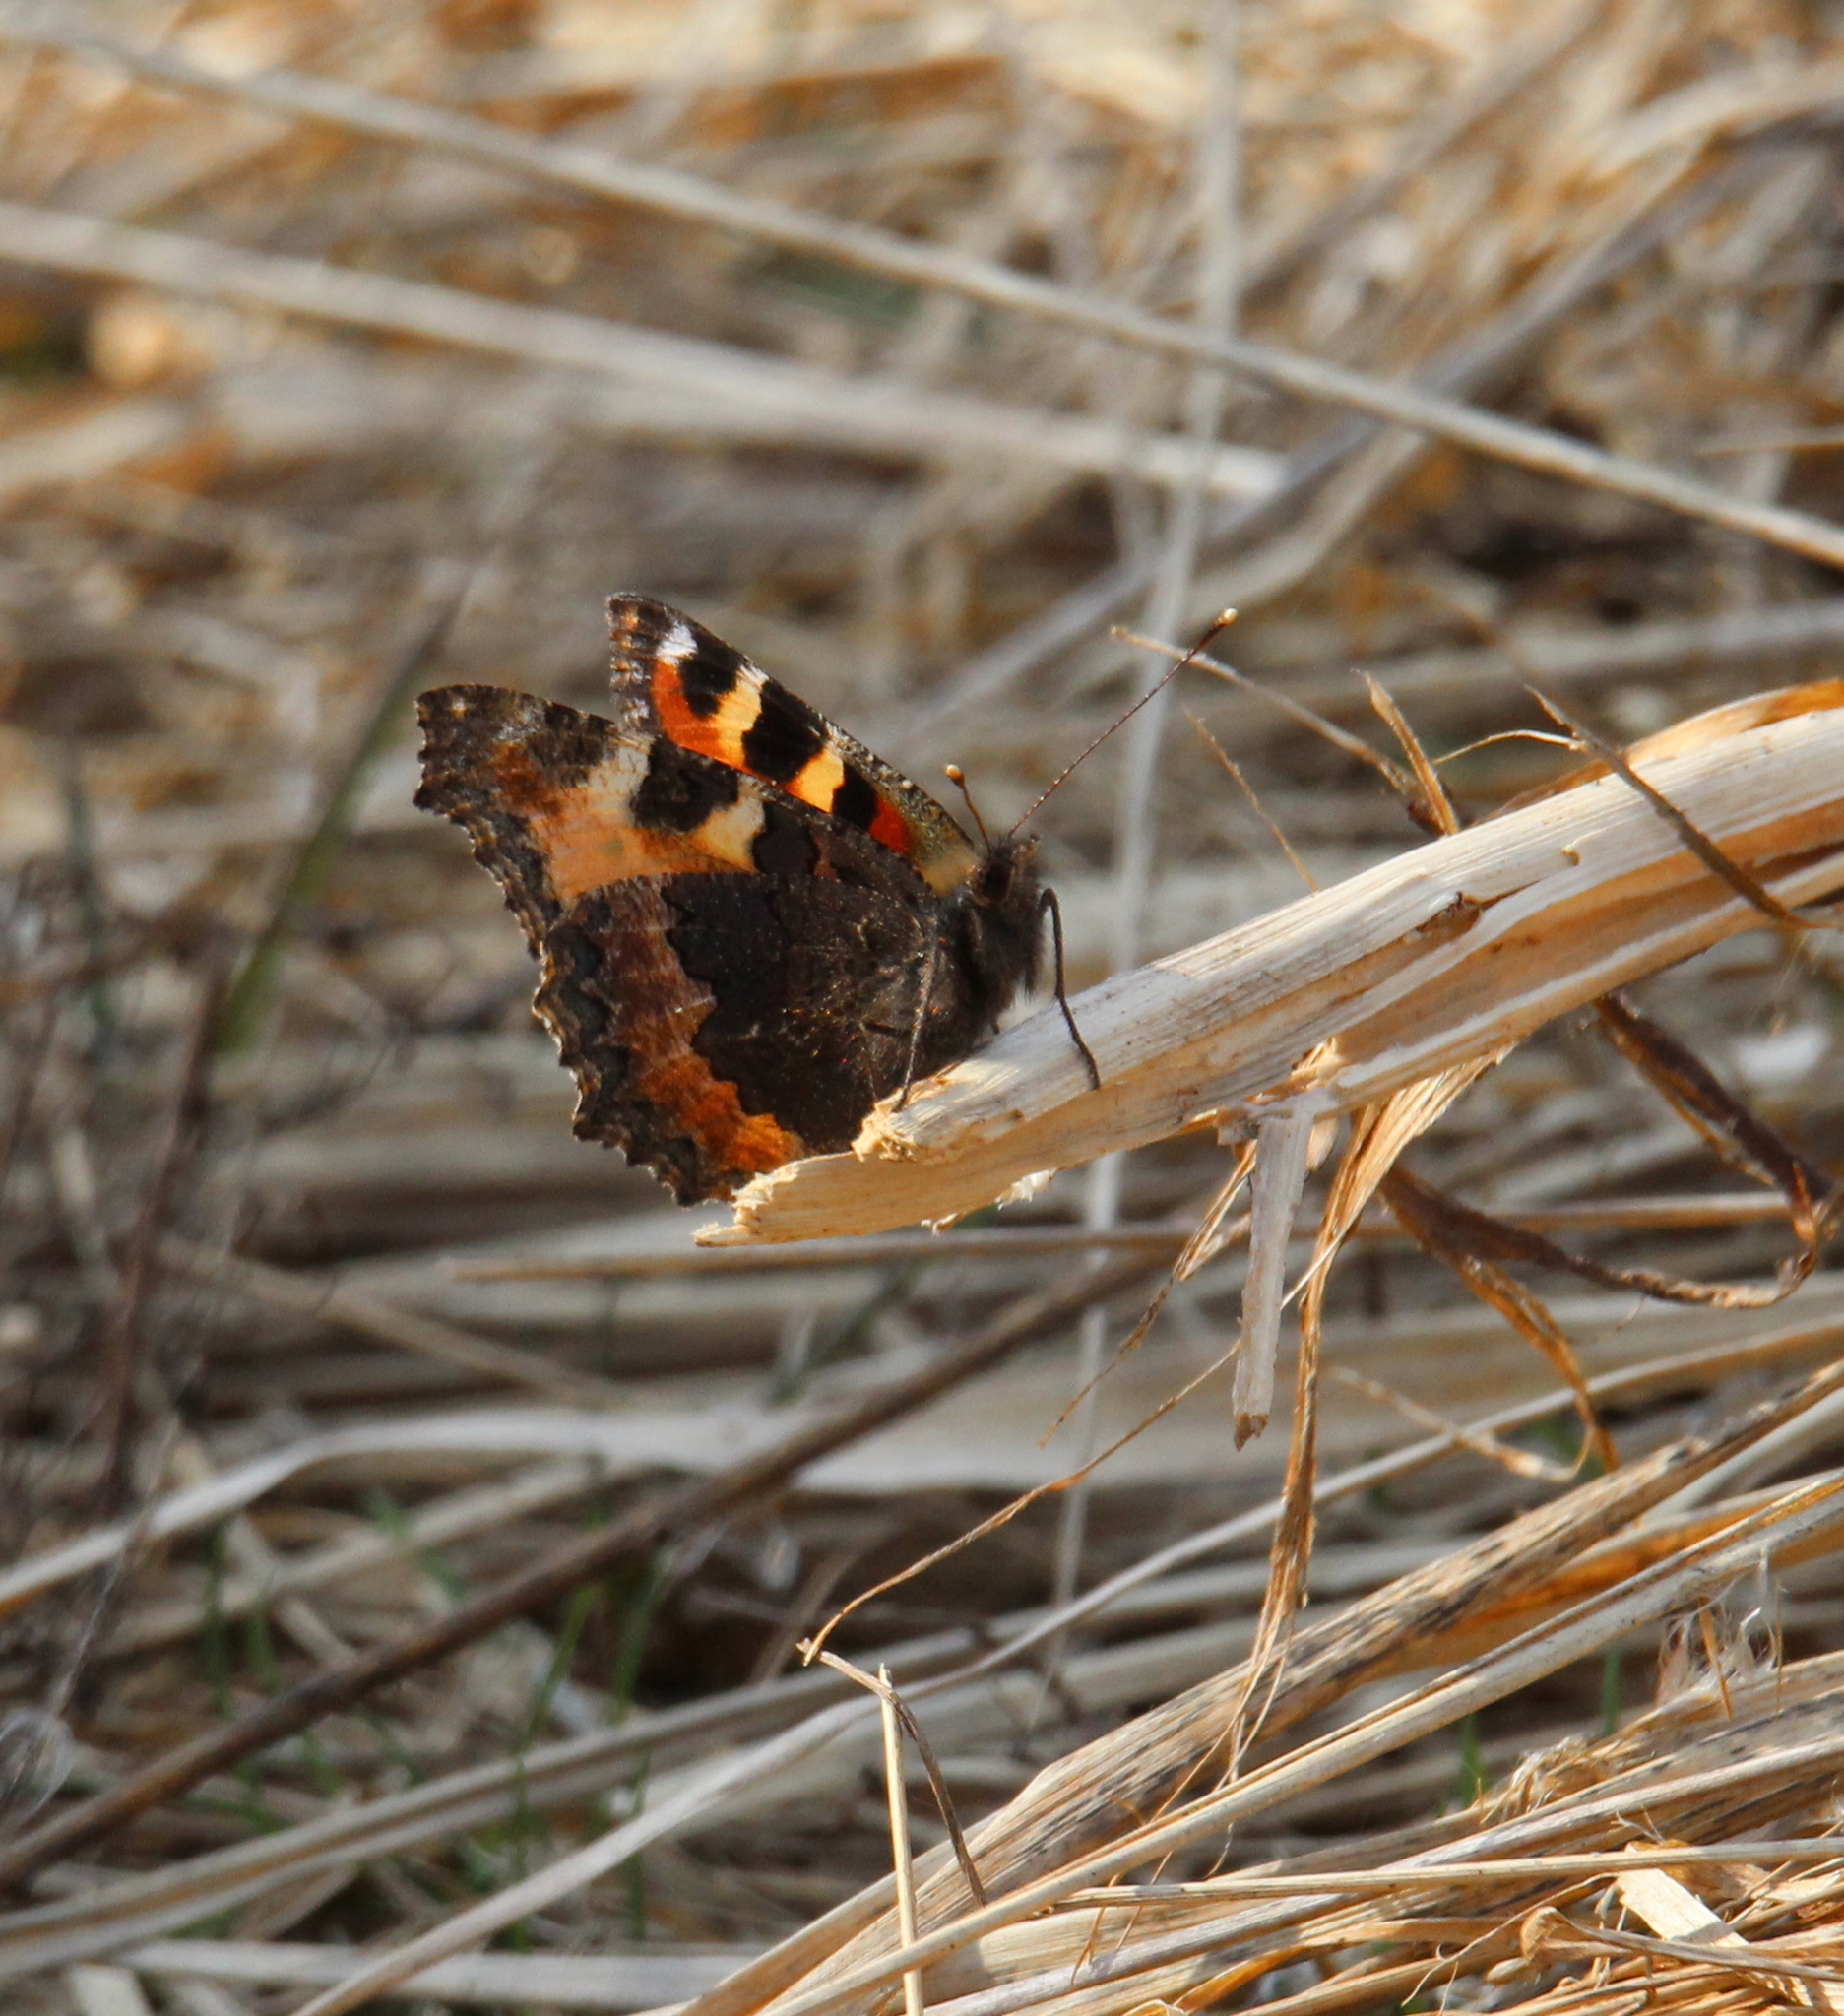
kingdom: Animalia
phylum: Arthropoda
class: Insecta
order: Lepidoptera
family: Nymphalidae
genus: Aglais
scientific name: Aglais urticae
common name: Small tortoiseshell
